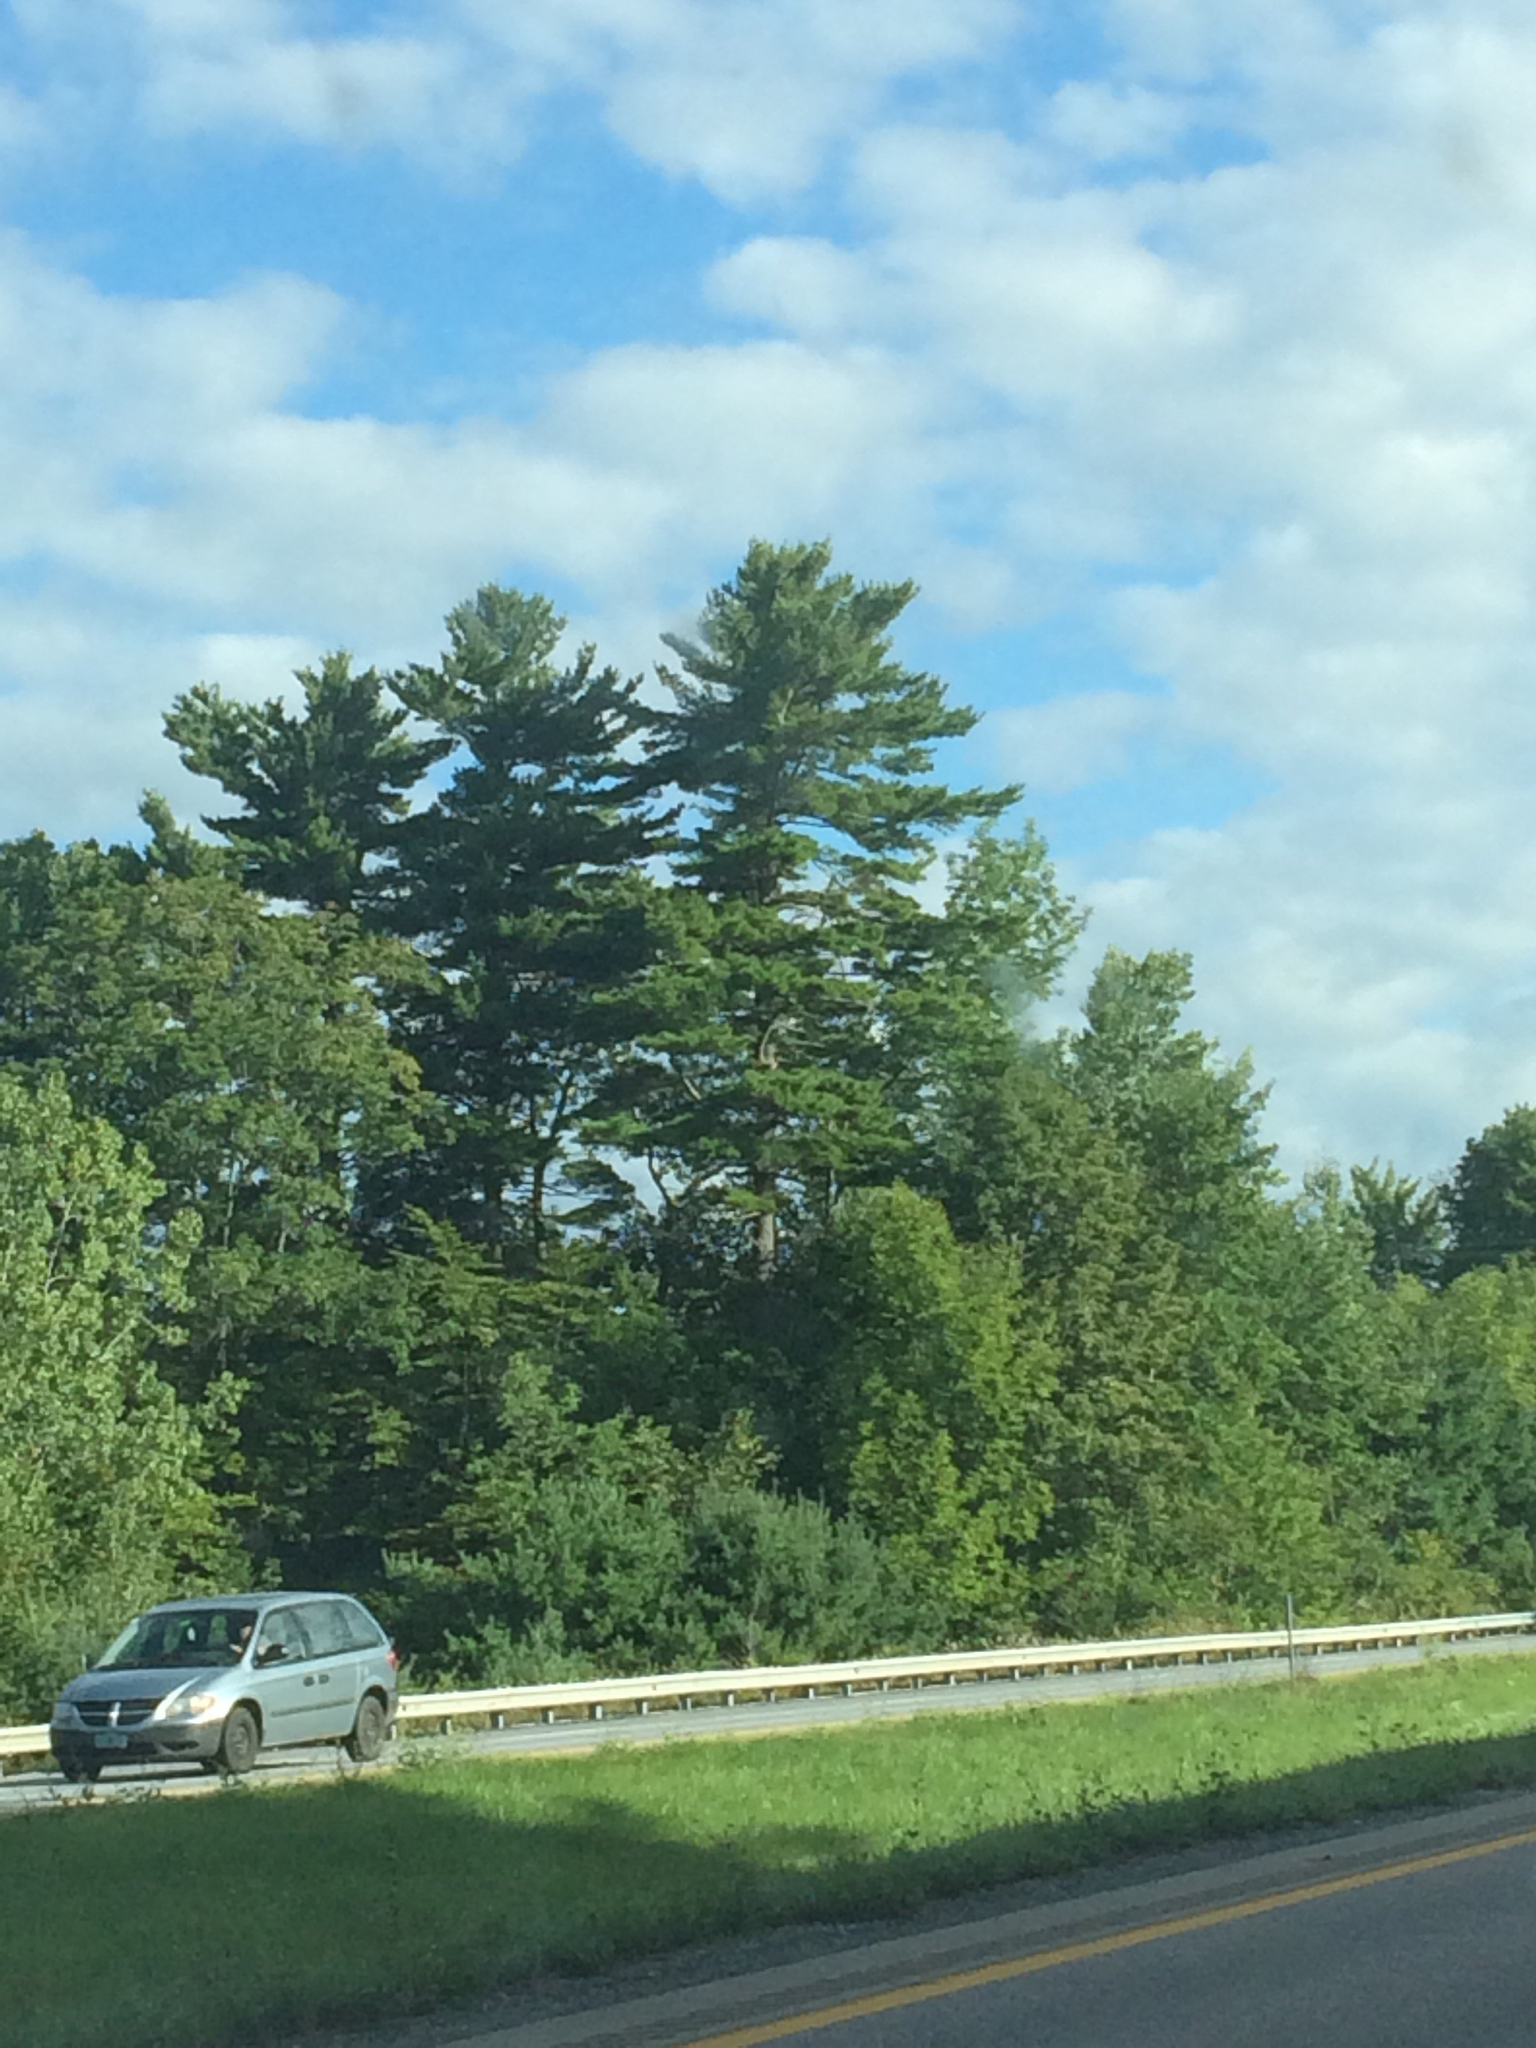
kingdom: Plantae
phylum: Tracheophyta
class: Pinopsida
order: Pinales
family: Pinaceae
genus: Pinus
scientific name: Pinus strobus
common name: Weymouth pine
